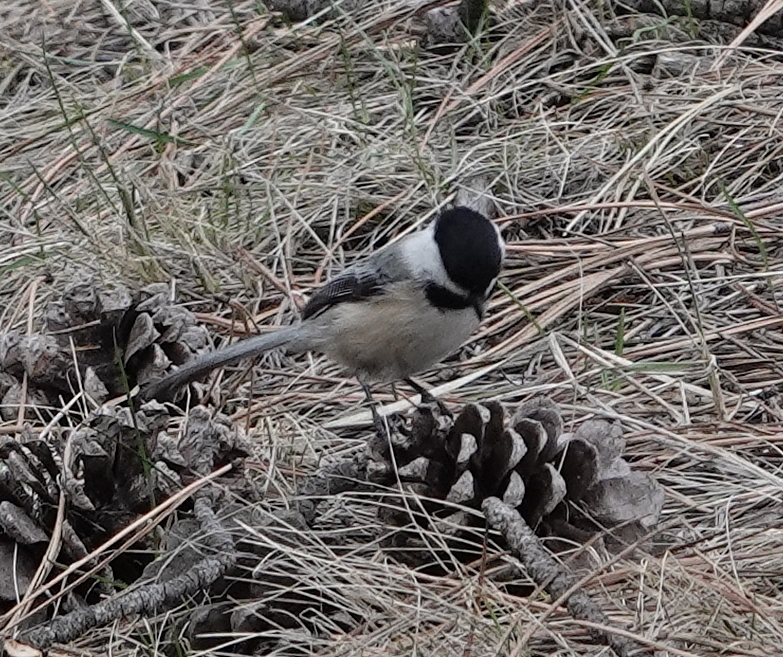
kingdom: Animalia
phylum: Chordata
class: Aves
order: Passeriformes
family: Paridae
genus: Poecile
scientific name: Poecile atricapillus
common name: Black-capped chickadee
